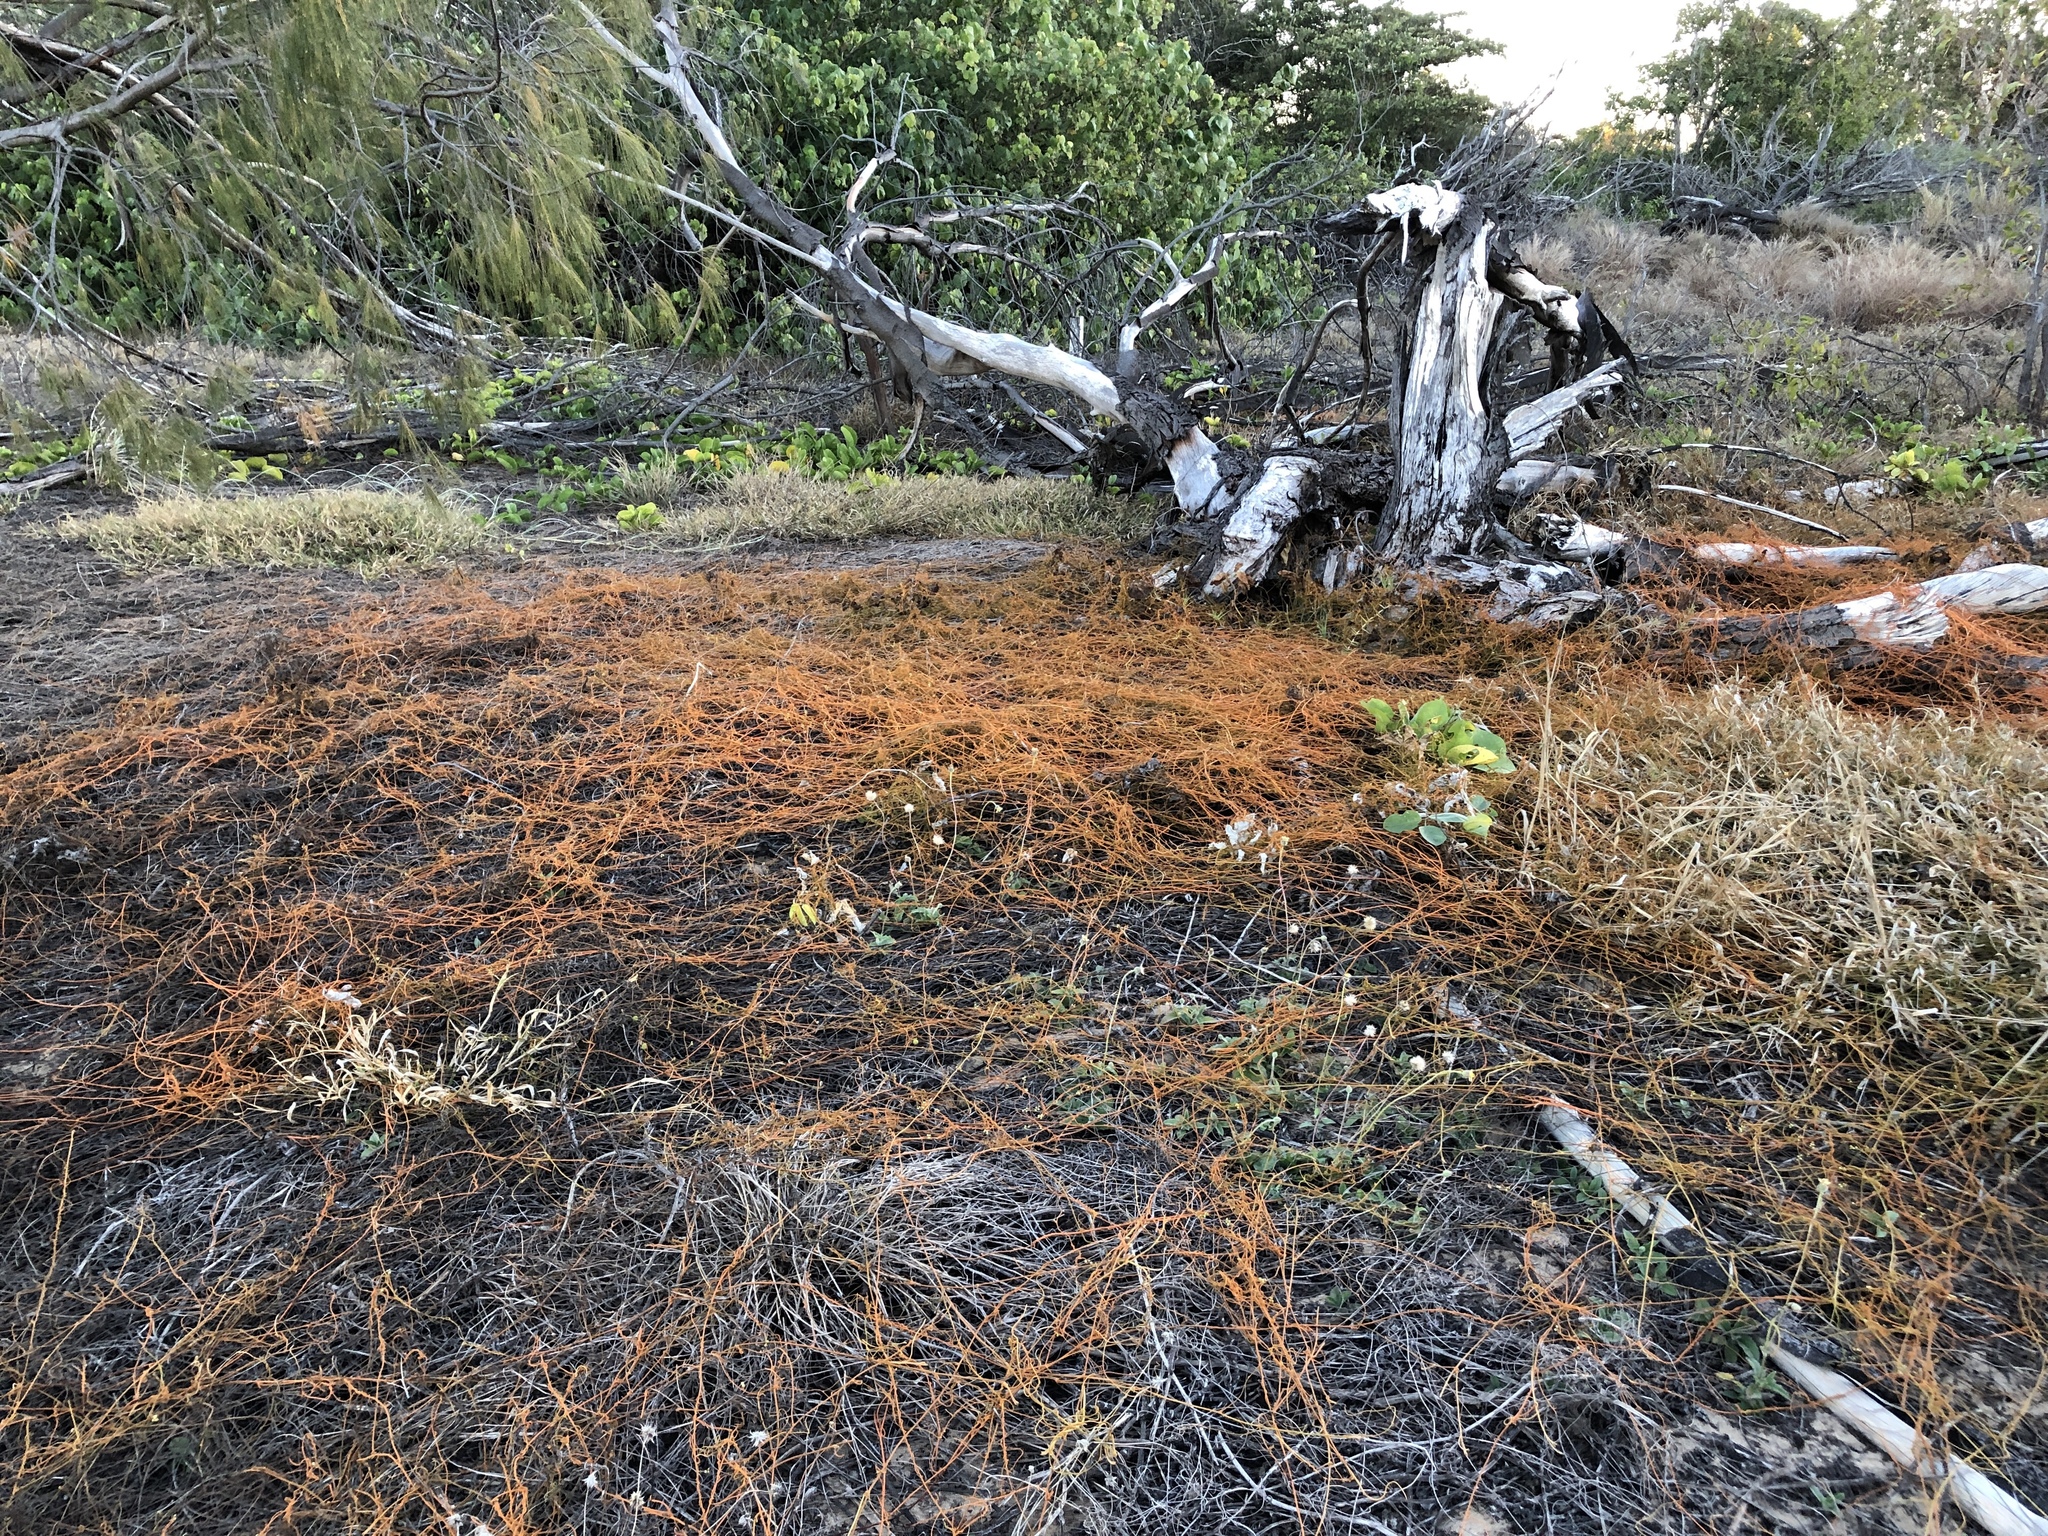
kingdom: Plantae
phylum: Tracheophyta
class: Magnoliopsida
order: Laurales
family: Lauraceae
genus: Cassytha
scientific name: Cassytha filiformis
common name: Dodder-laurel
